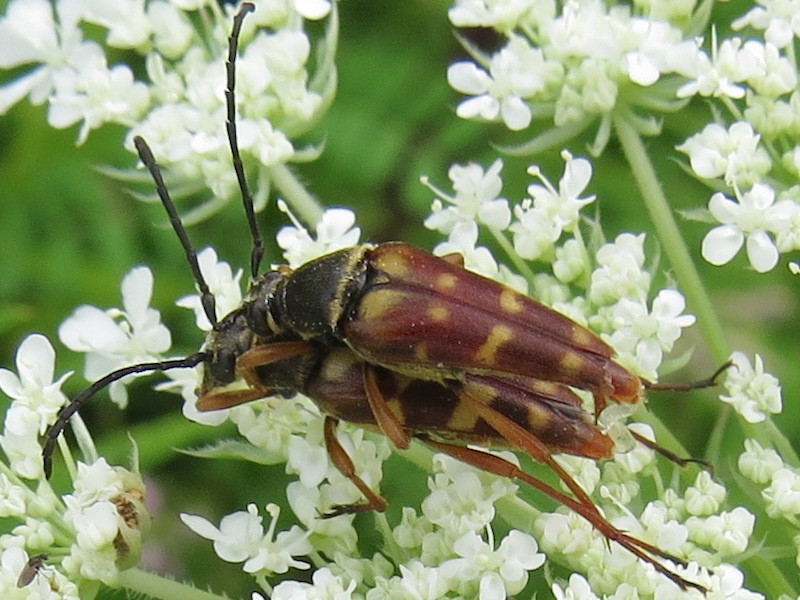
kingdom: Animalia
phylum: Arthropoda
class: Insecta
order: Coleoptera
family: Cerambycidae
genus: Typocerus
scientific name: Typocerus velutinus
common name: Banded longhorn beetle
